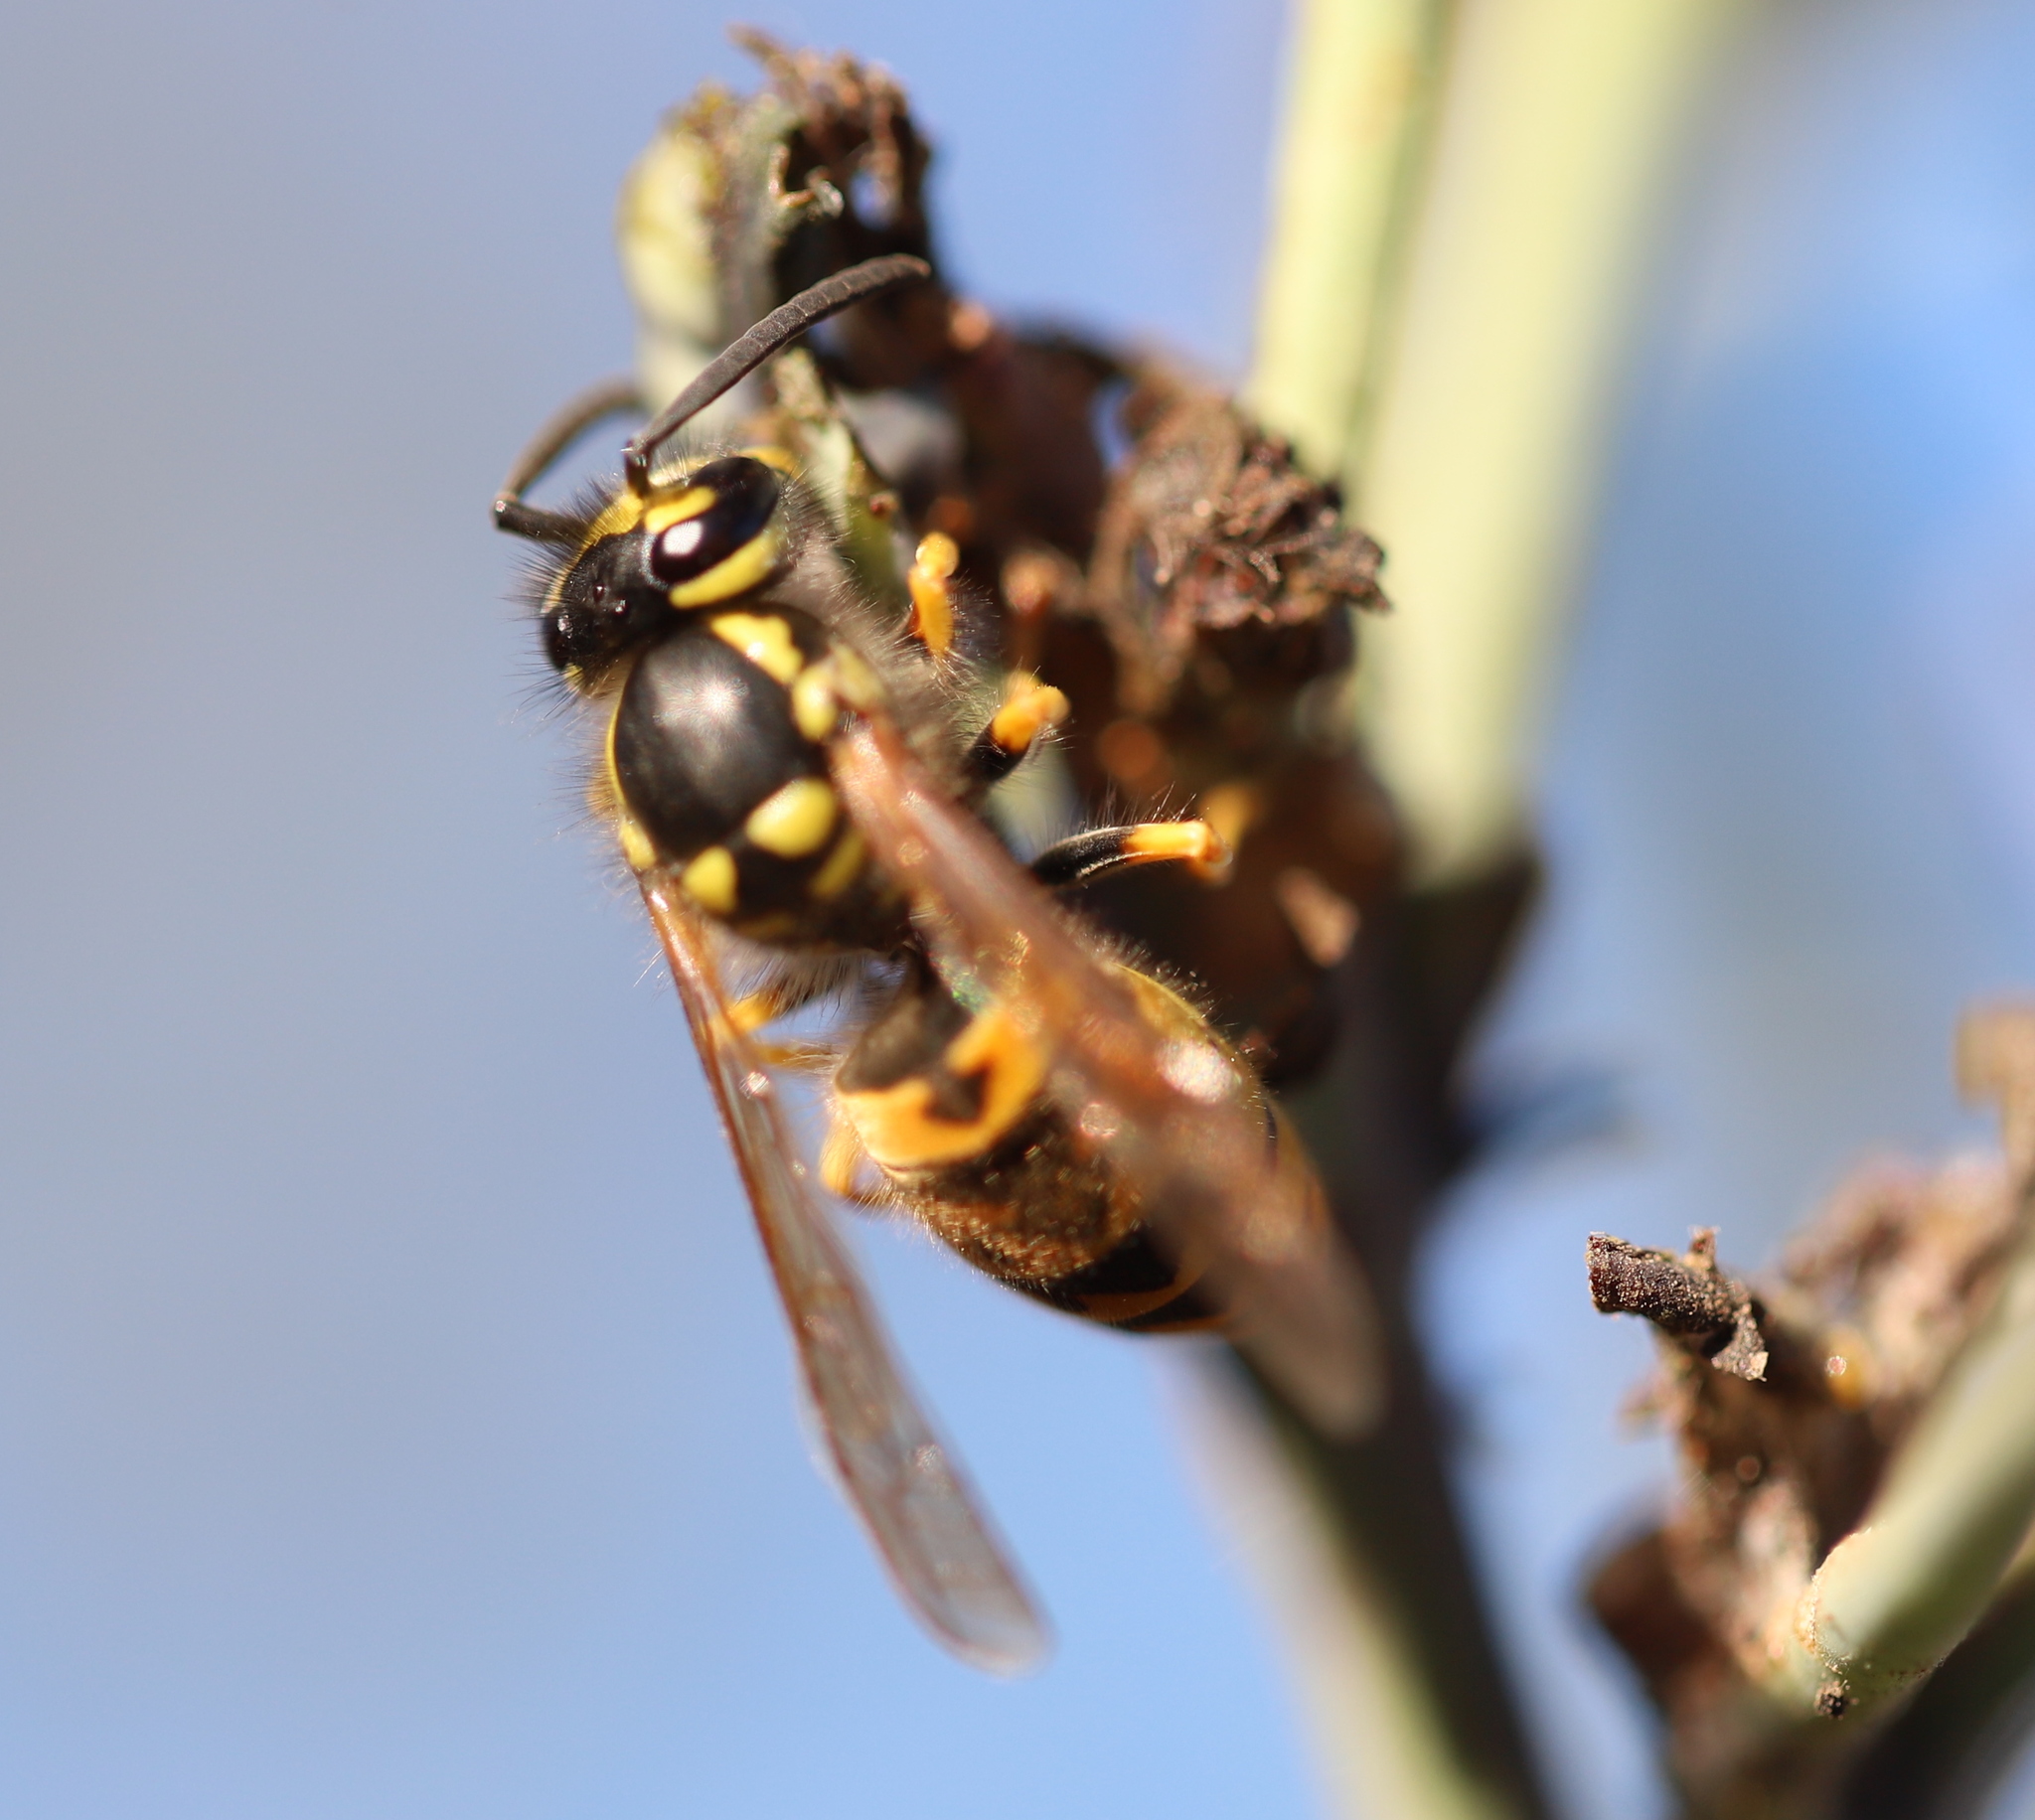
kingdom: Animalia
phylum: Arthropoda
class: Insecta
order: Hymenoptera
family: Vespidae
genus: Vespula
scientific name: Vespula germanica
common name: German wasp
